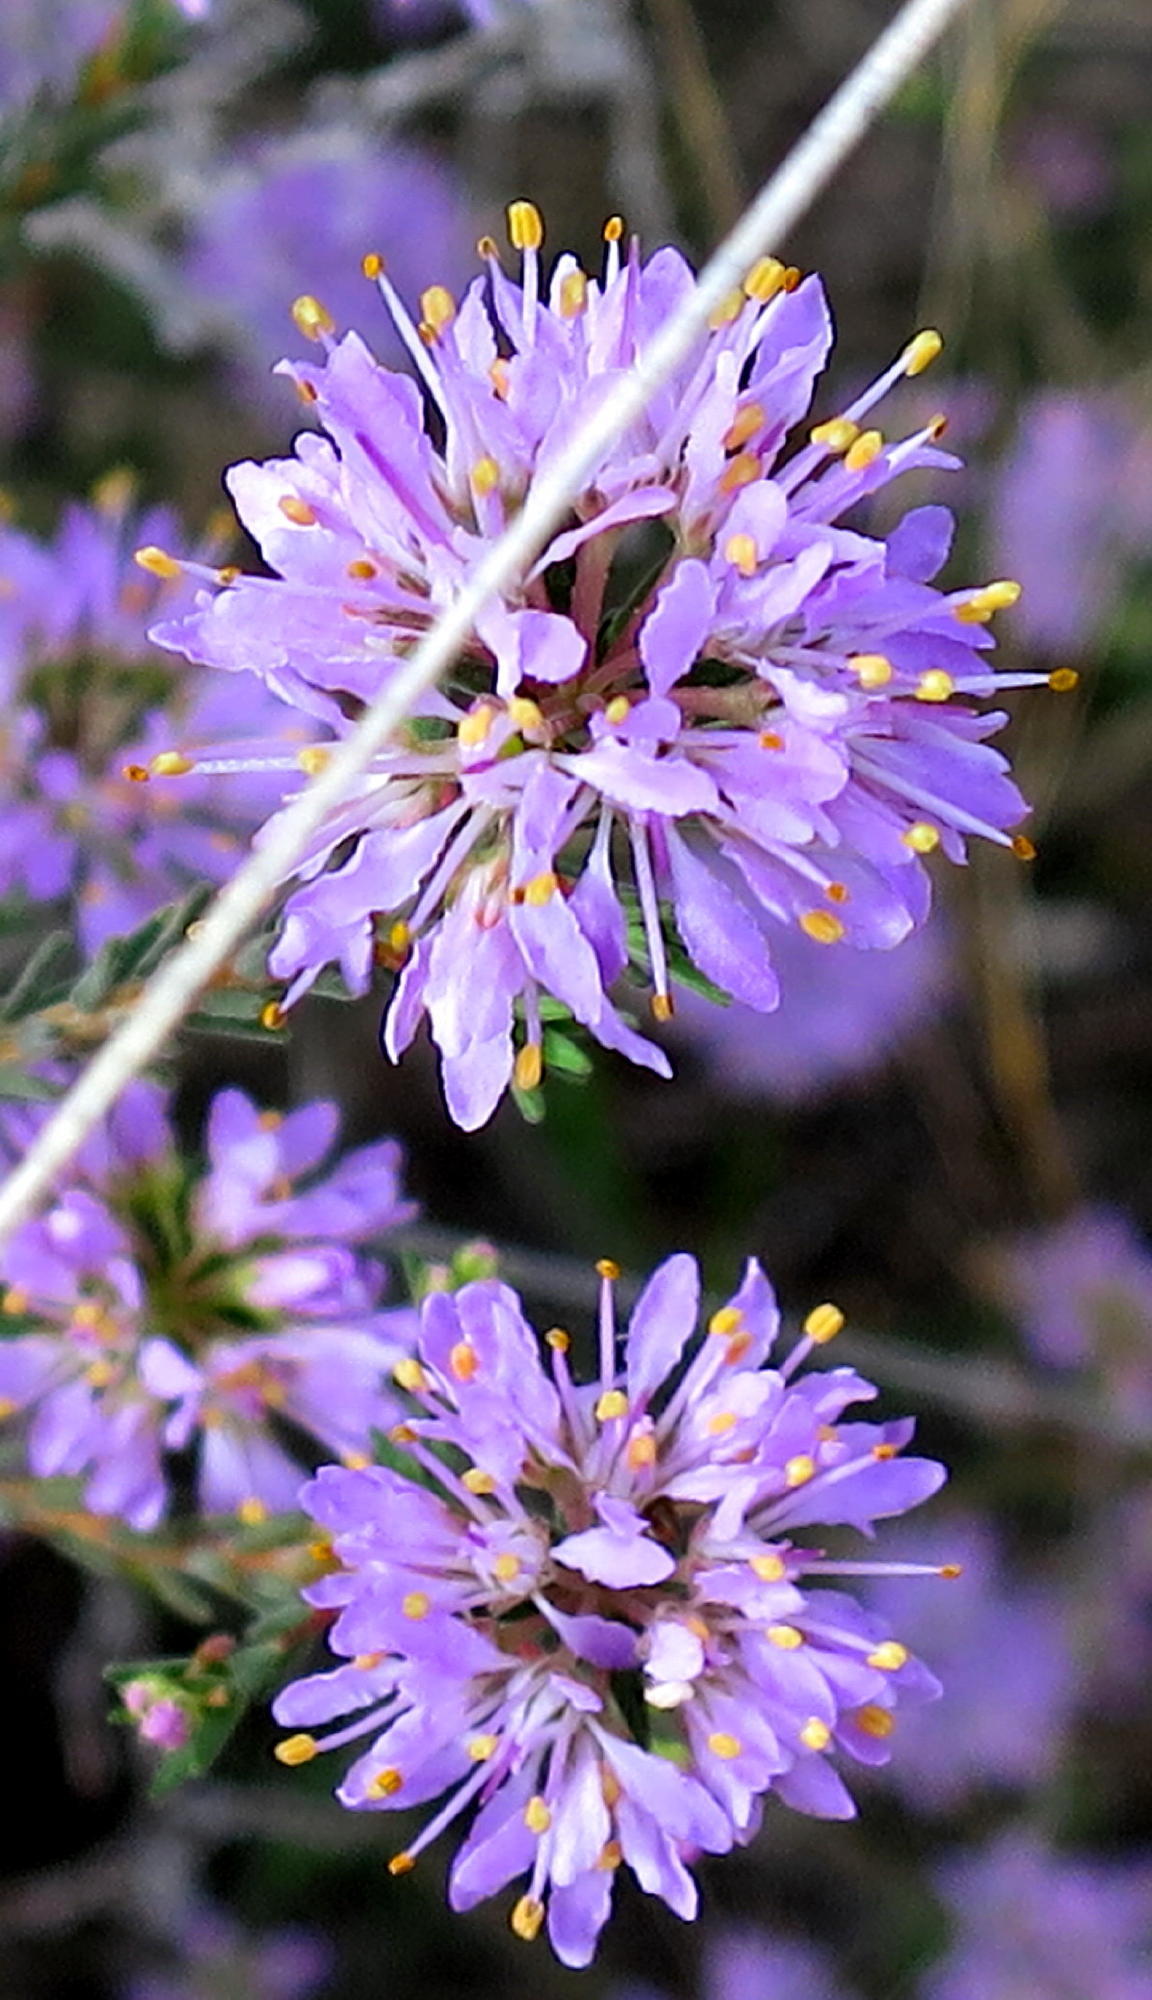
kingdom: Plantae
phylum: Tracheophyta
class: Magnoliopsida
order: Sapindales
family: Rutaceae
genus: Agathosma
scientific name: Agathosma
